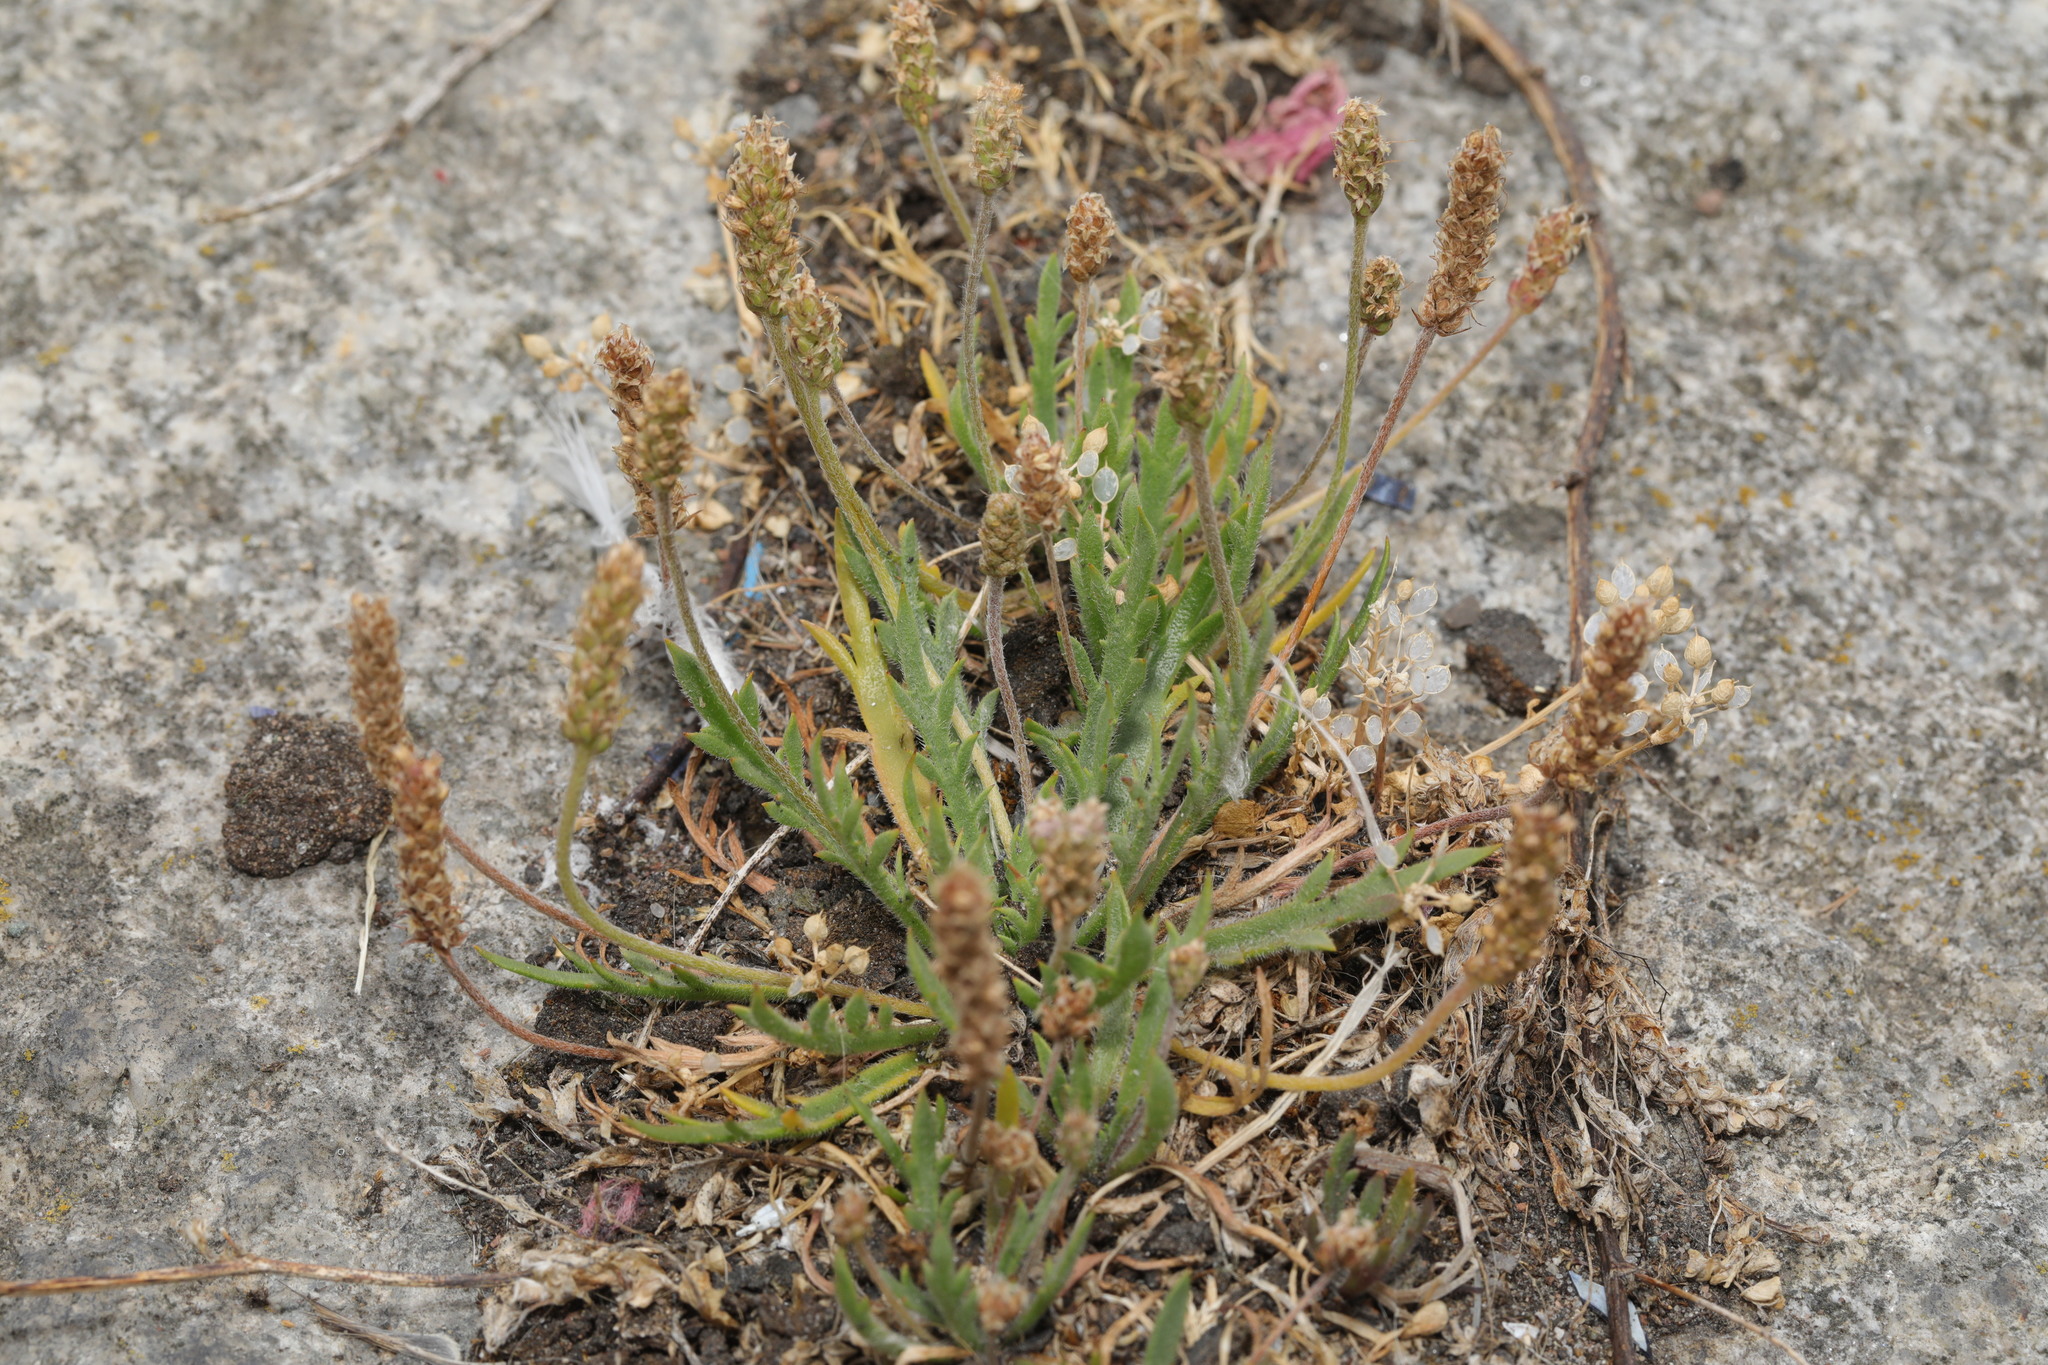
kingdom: Plantae
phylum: Tracheophyta
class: Magnoliopsida
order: Lamiales
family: Plantaginaceae
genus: Plantago
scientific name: Plantago coronopus
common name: Buck's-horn plantain
